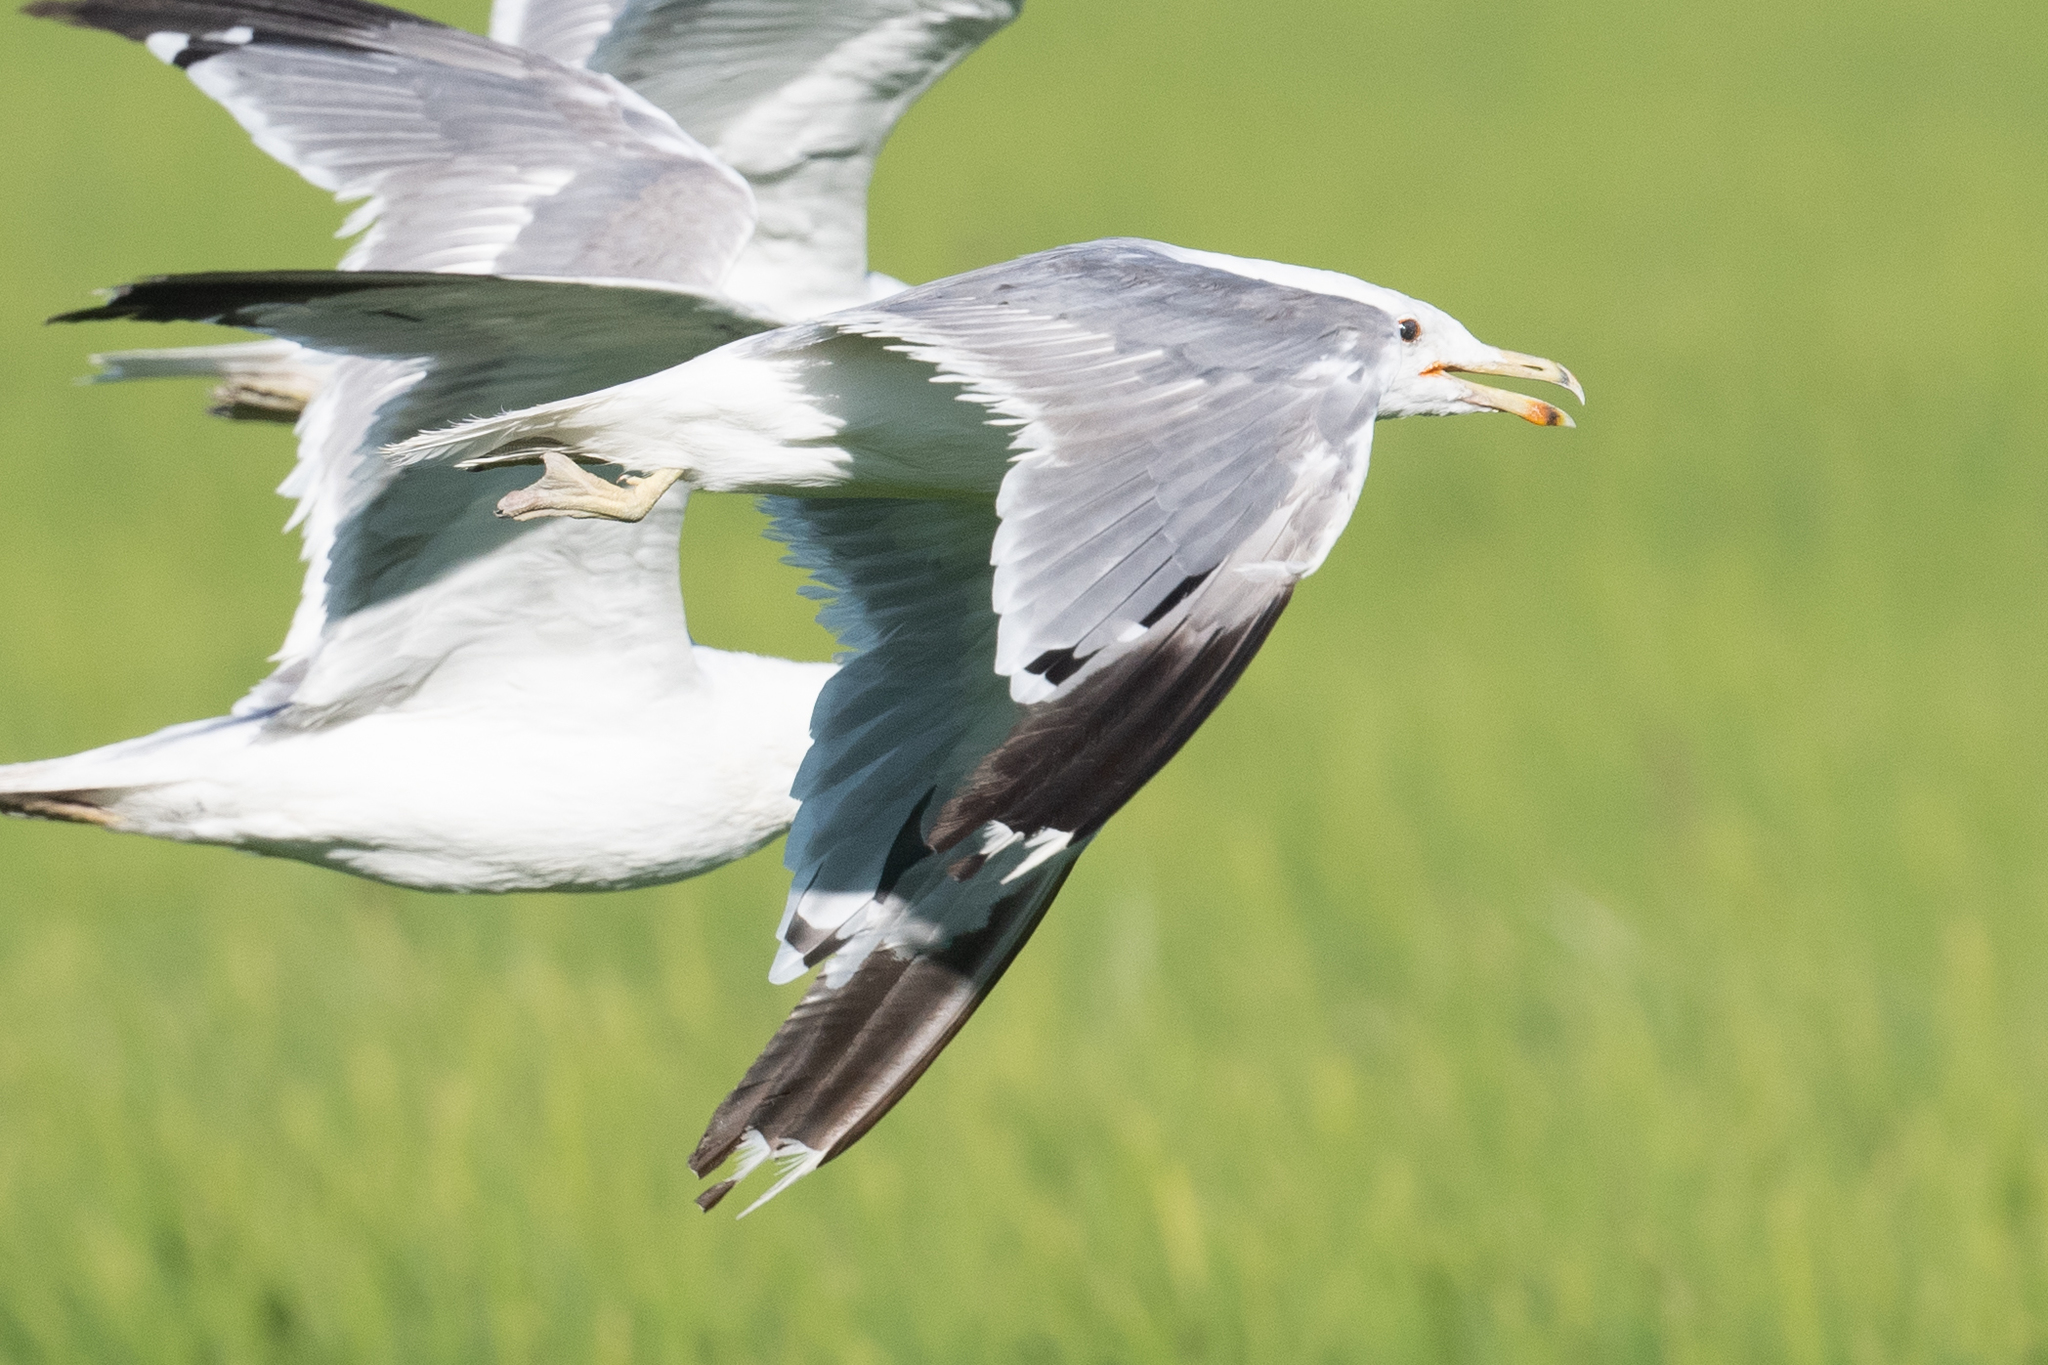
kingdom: Animalia
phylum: Chordata
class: Aves
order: Charadriiformes
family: Laridae
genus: Larus
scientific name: Larus californicus
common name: California gull
